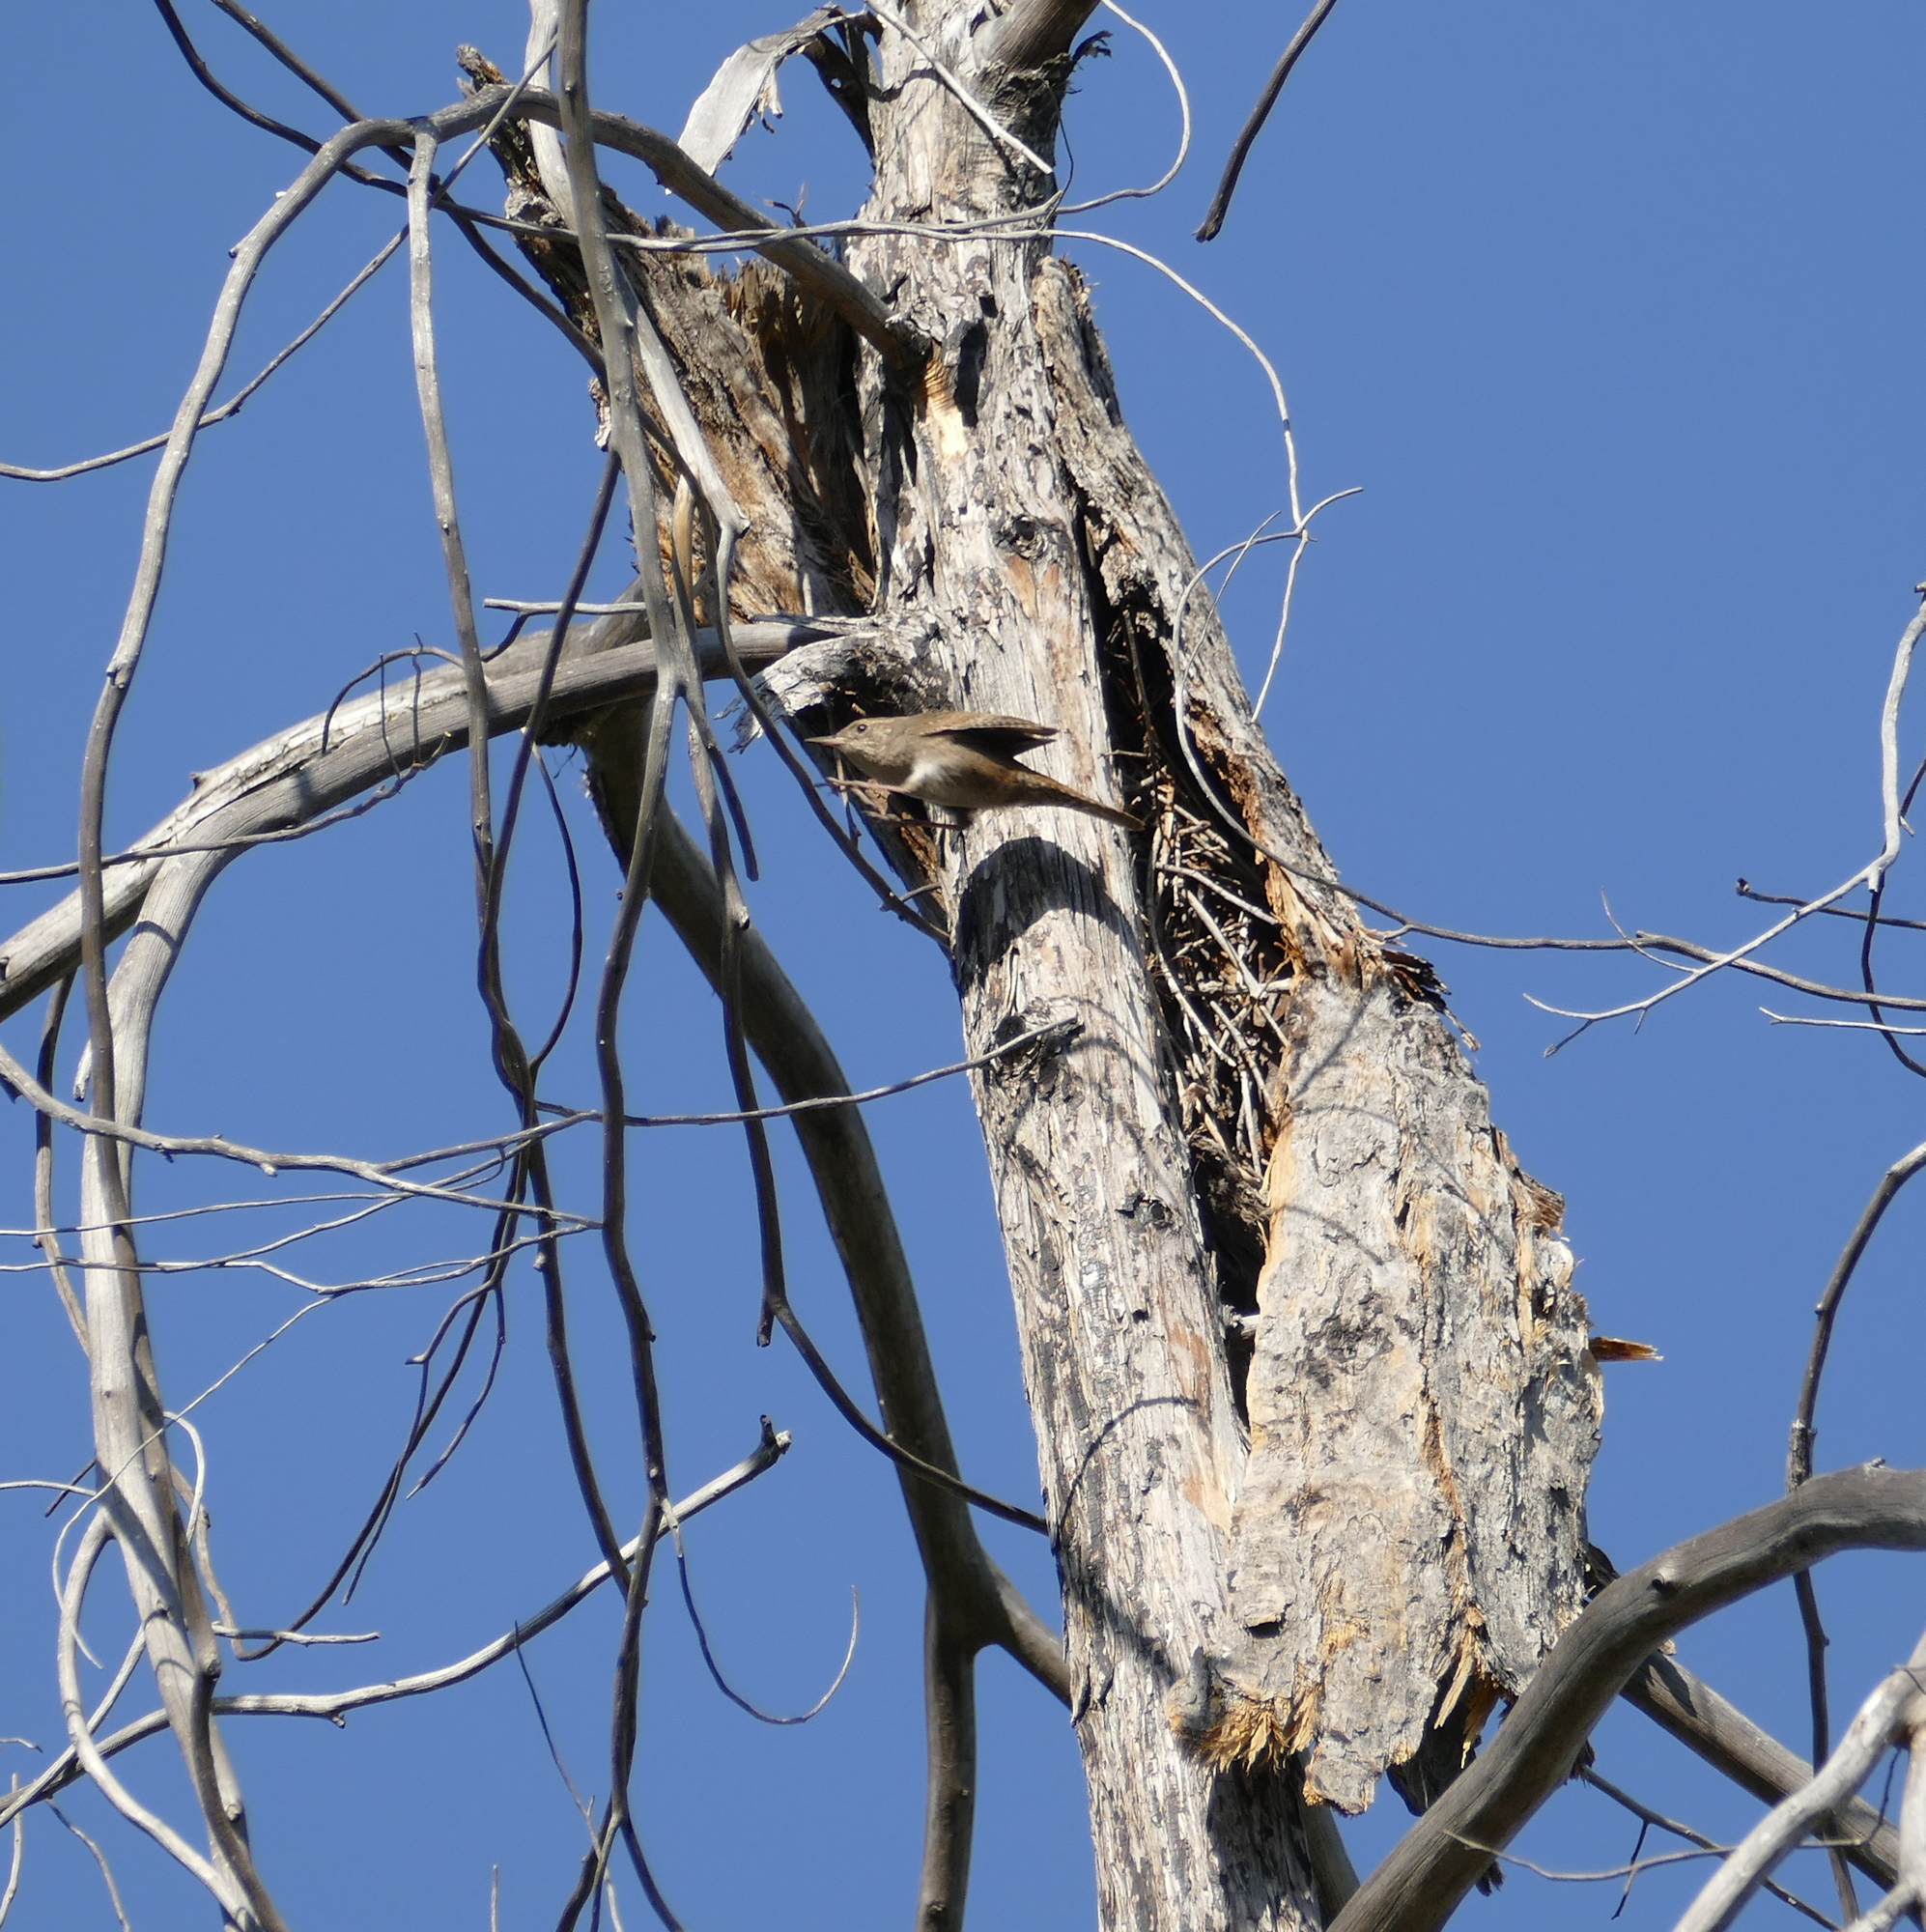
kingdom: Animalia
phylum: Chordata
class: Aves
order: Passeriformes
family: Troglodytidae
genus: Troglodytes
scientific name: Troglodytes aedon
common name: House wren
